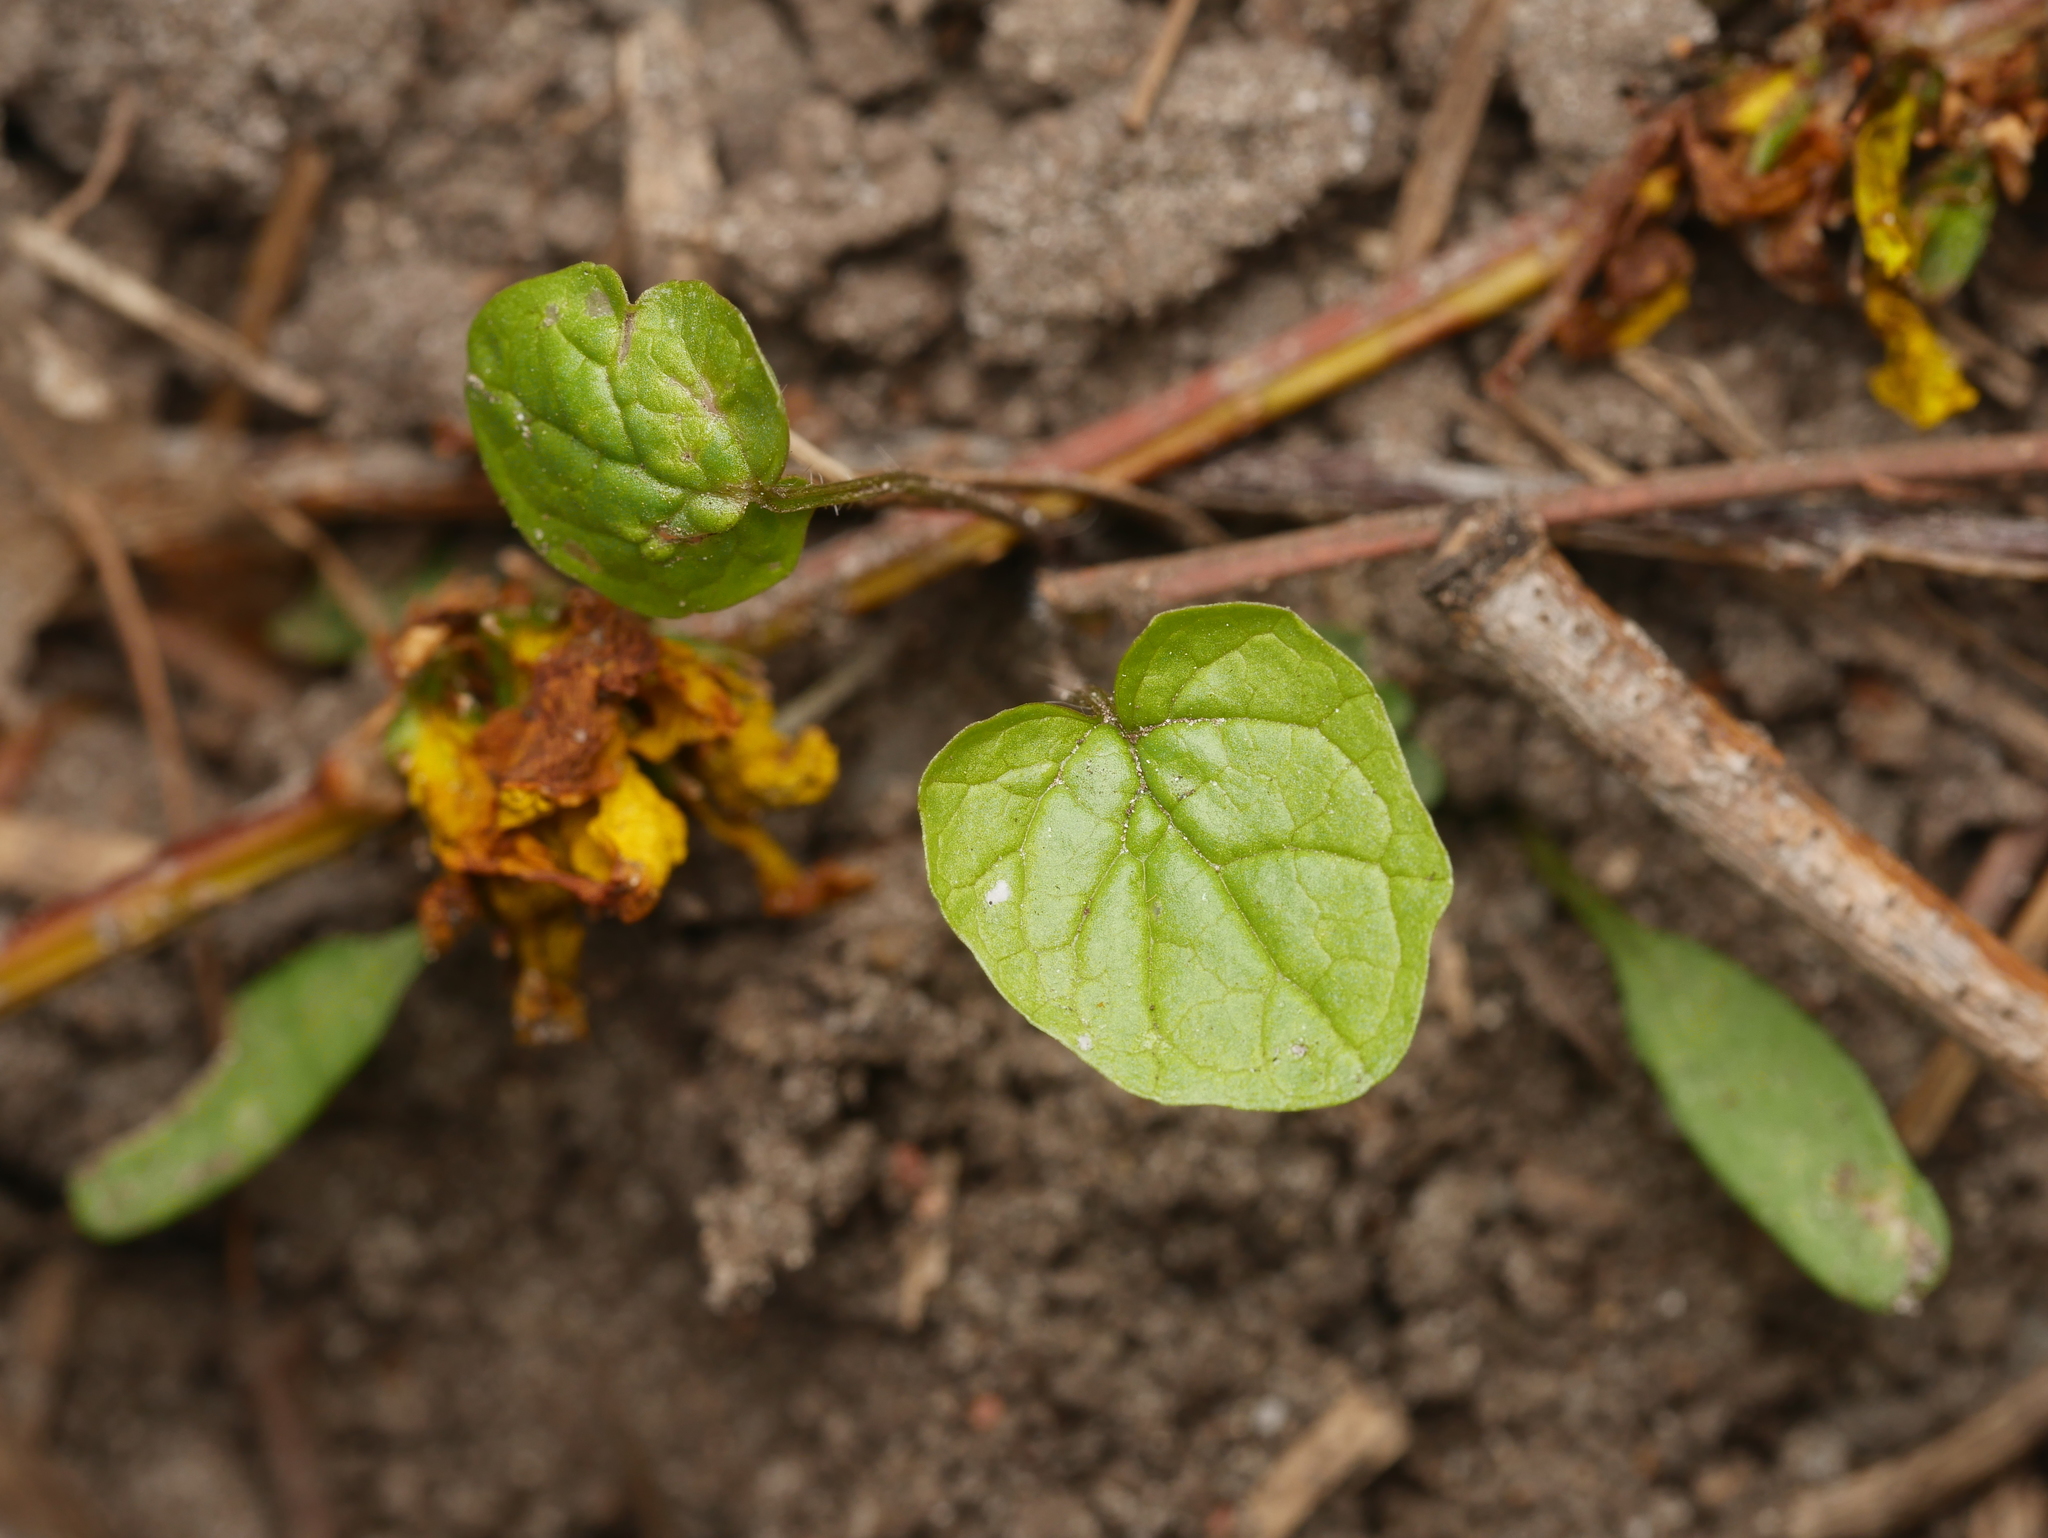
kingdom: Plantae
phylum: Tracheophyta
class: Magnoliopsida
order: Ranunculales
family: Ranunculaceae
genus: Ficaria
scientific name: Ficaria verna
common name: Lesser celandine
